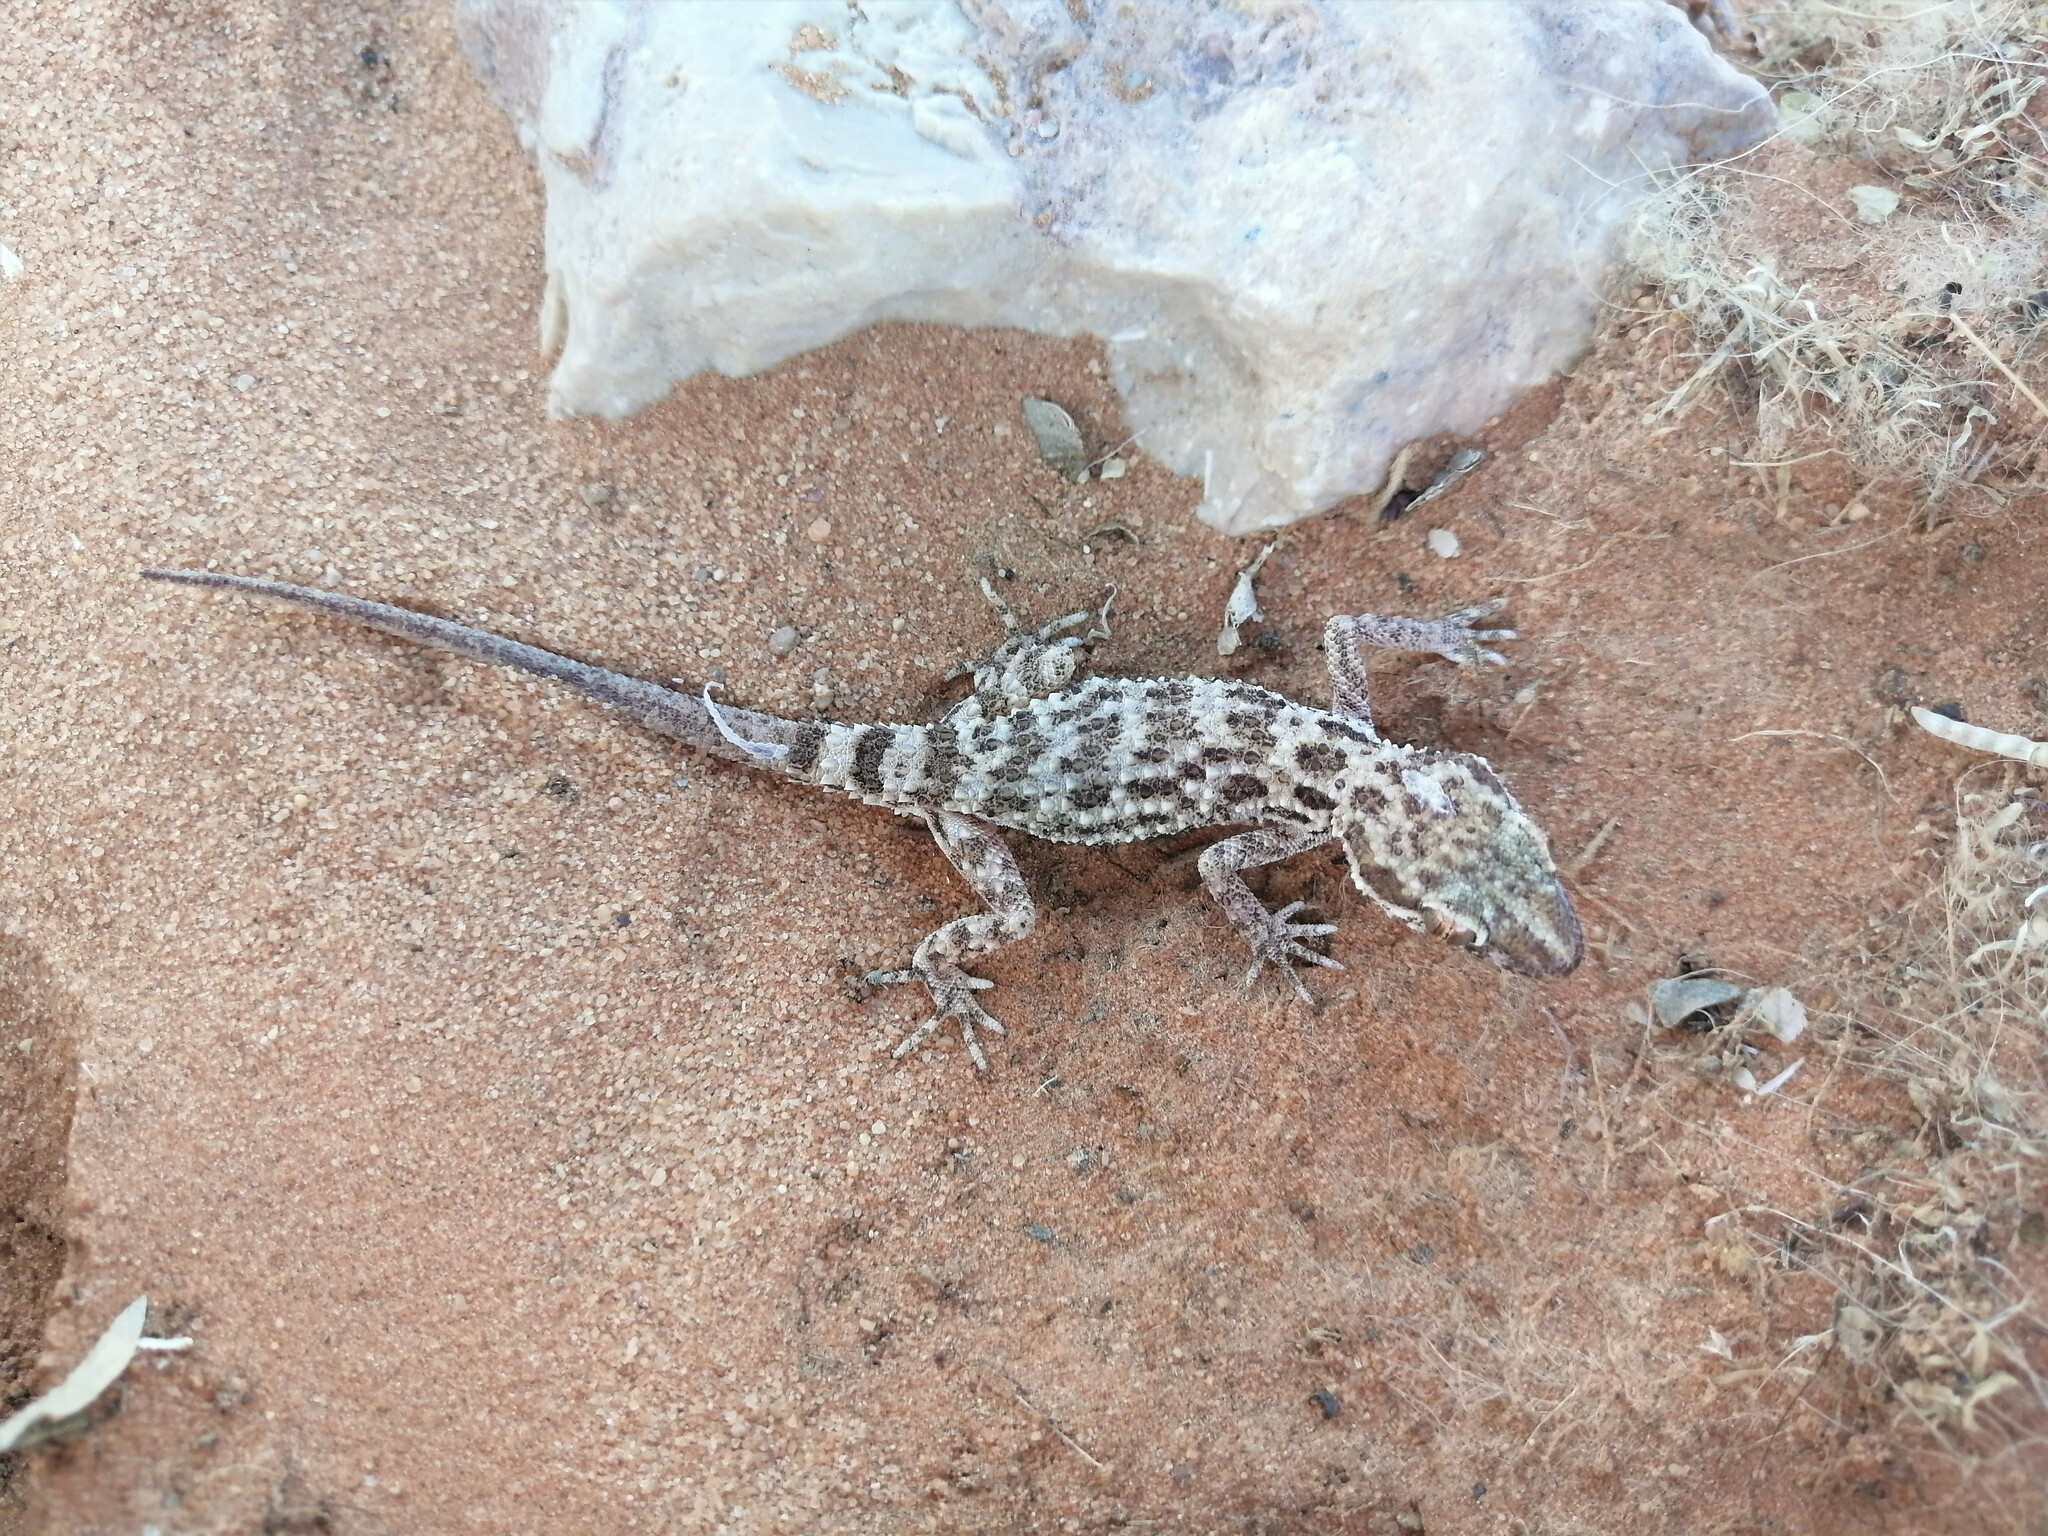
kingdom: Animalia
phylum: Chordata
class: Squamata
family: Gekkonidae
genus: Bunopus
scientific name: Bunopus tuberculatus
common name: Southern tuberculated gecko
